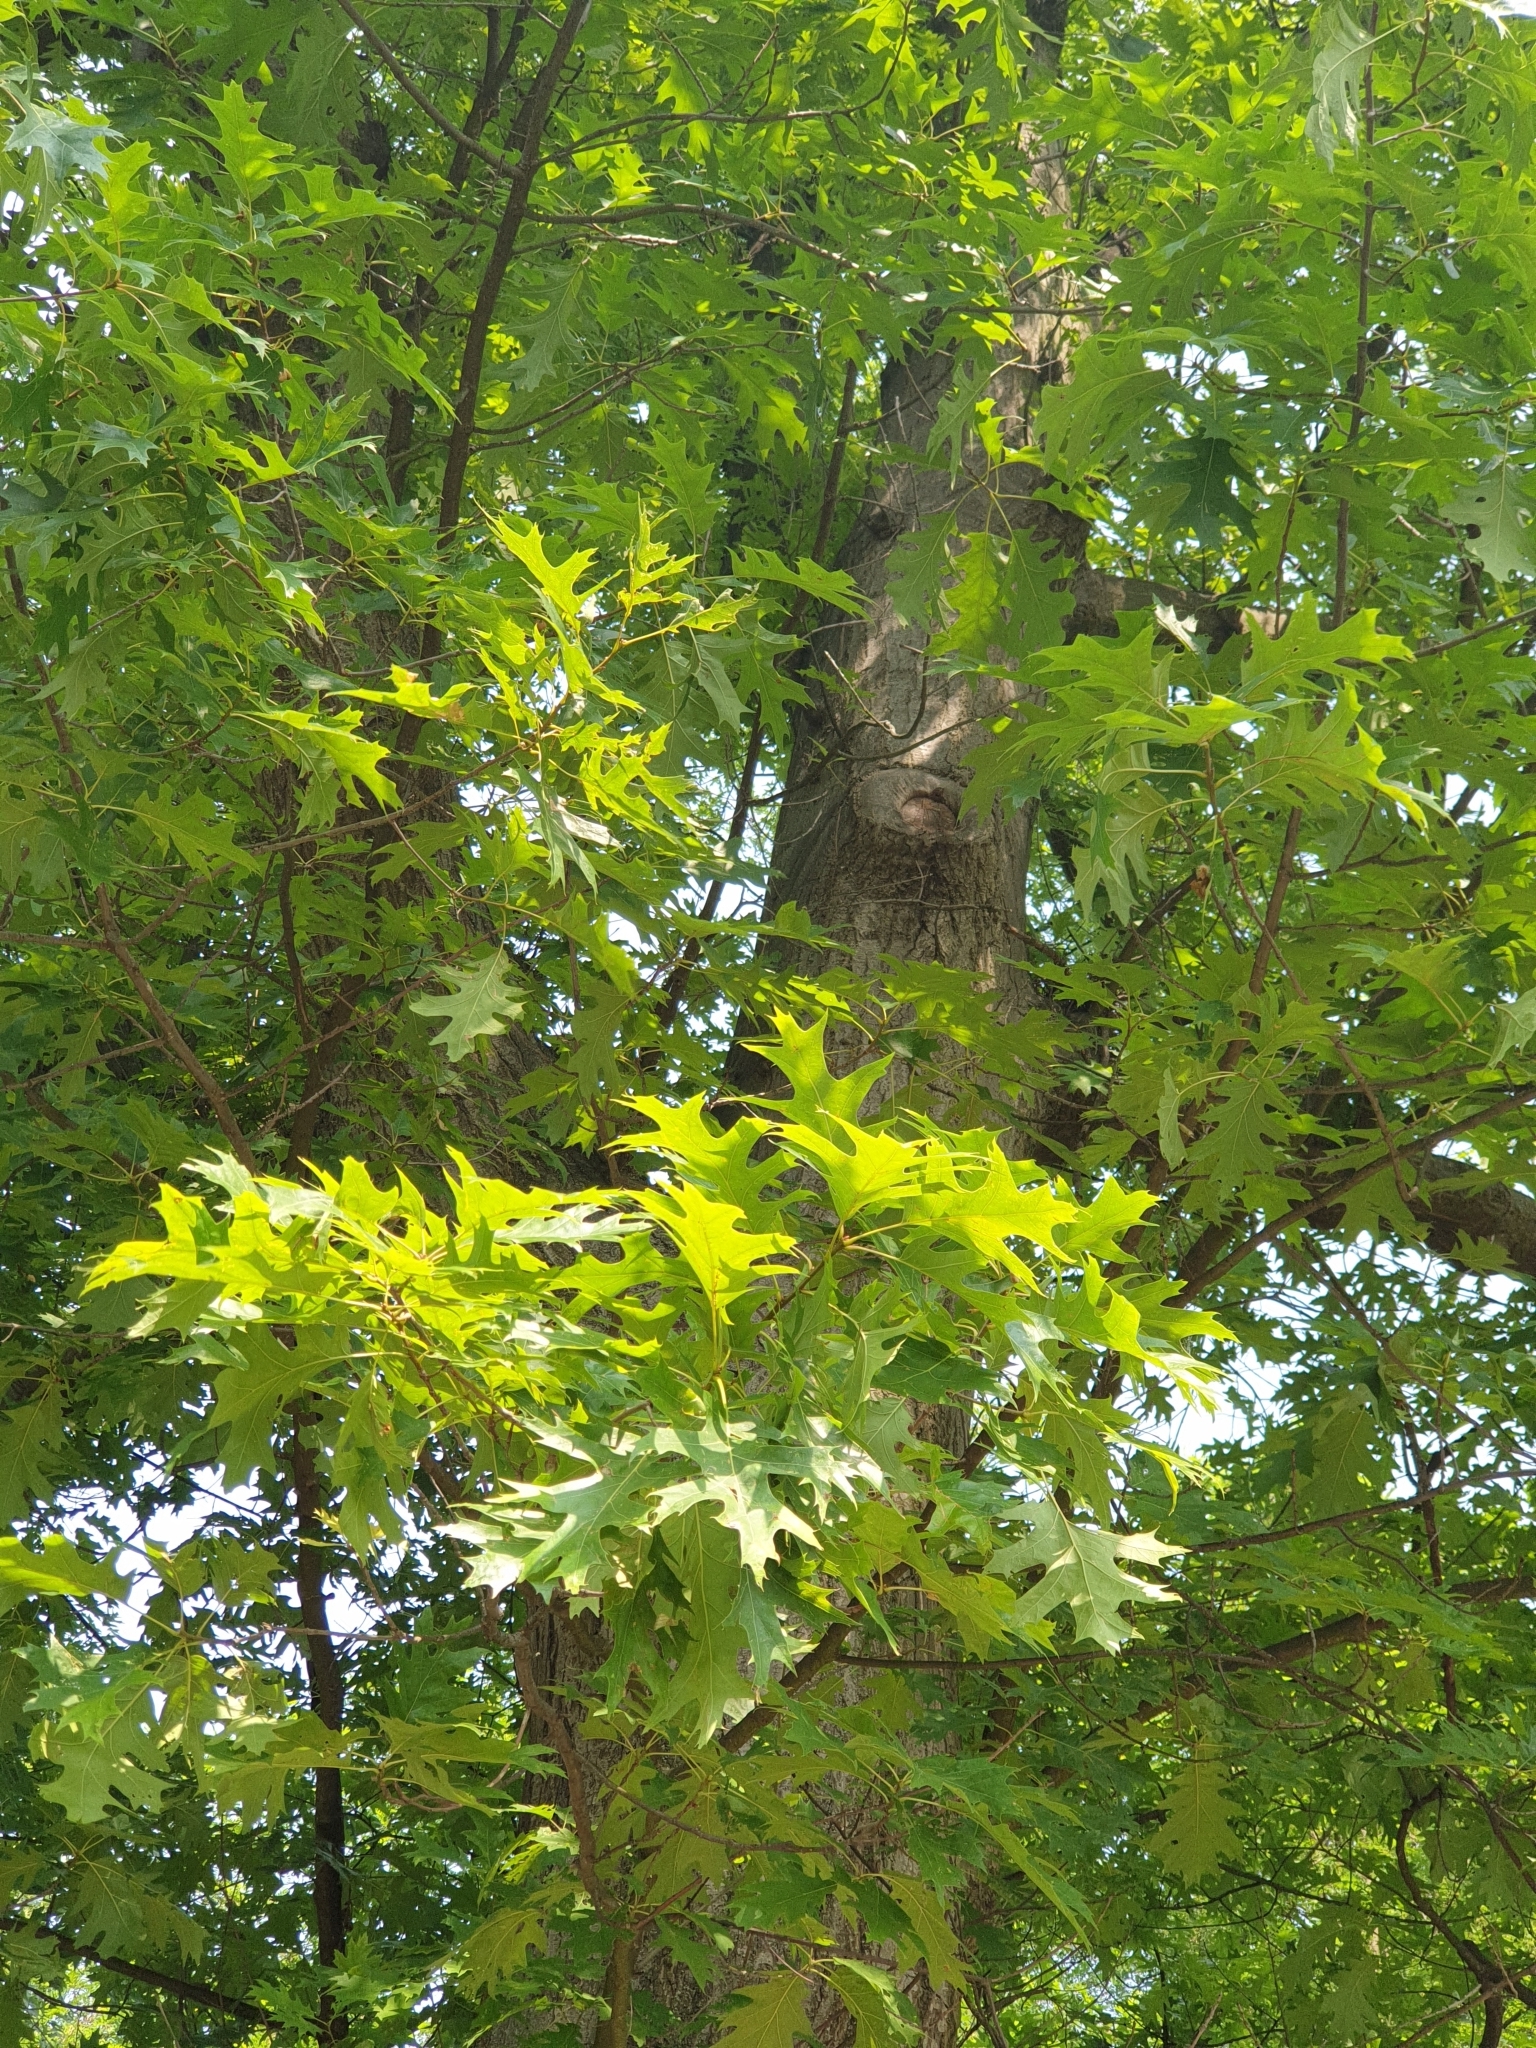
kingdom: Plantae
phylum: Tracheophyta
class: Magnoliopsida
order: Fagales
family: Fagaceae
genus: Quercus
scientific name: Quercus rubra
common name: Red oak
